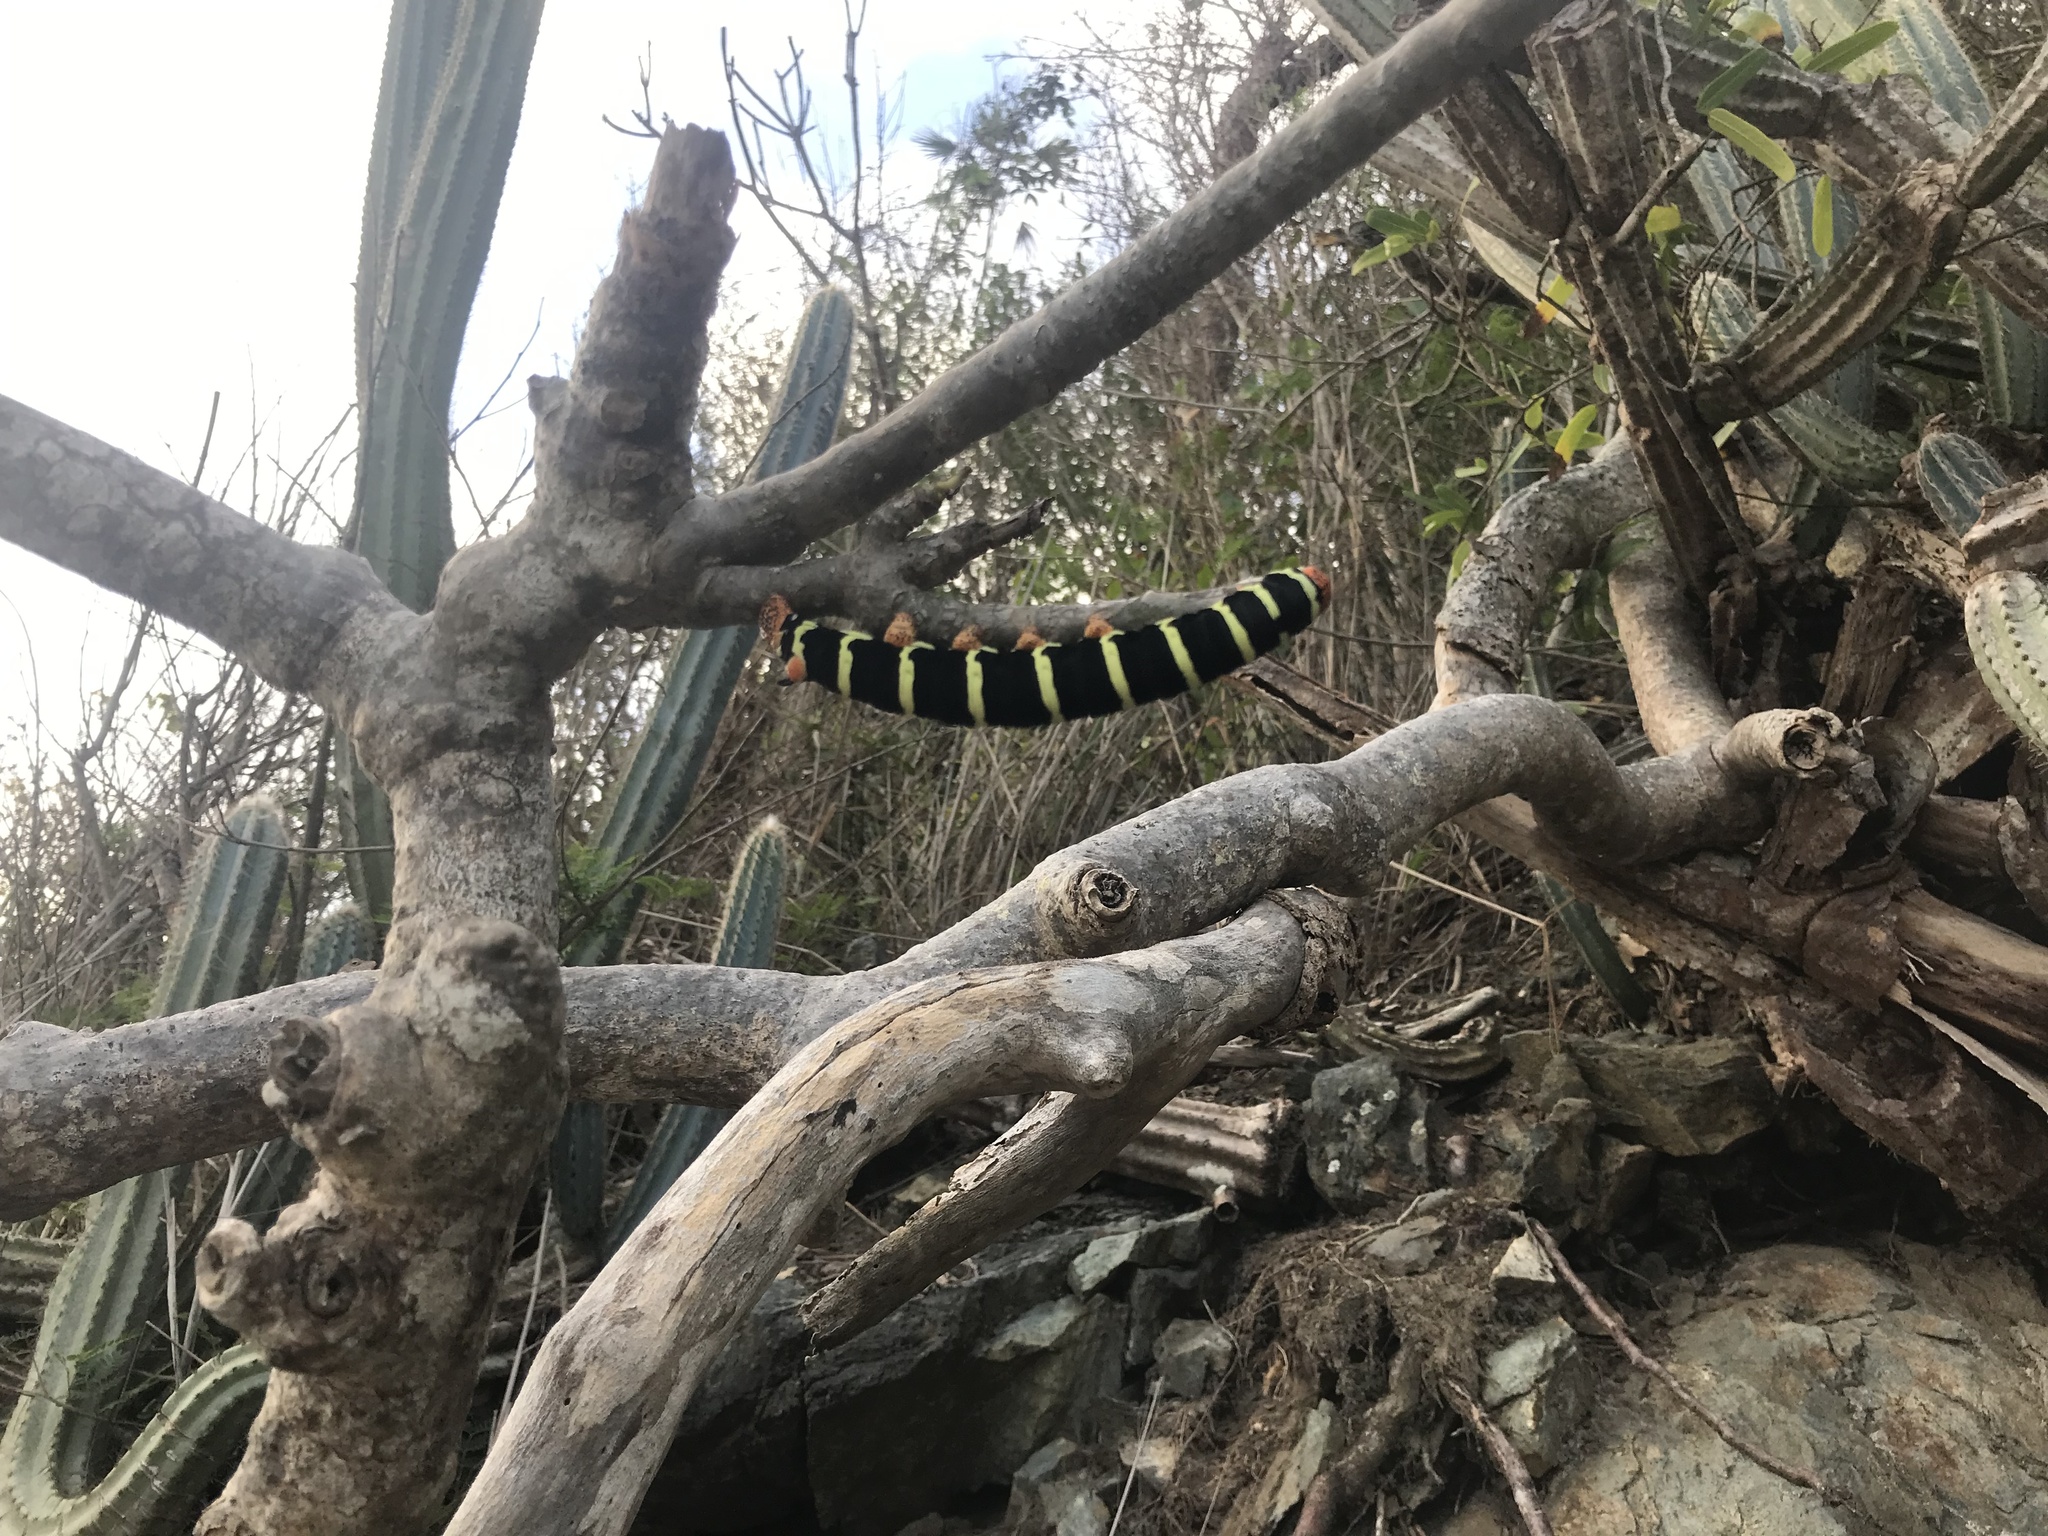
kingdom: Animalia
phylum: Arthropoda
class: Insecta
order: Lepidoptera
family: Sphingidae
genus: Pseudosphinx
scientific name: Pseudosphinx tetrio
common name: Tetrio sphinx
